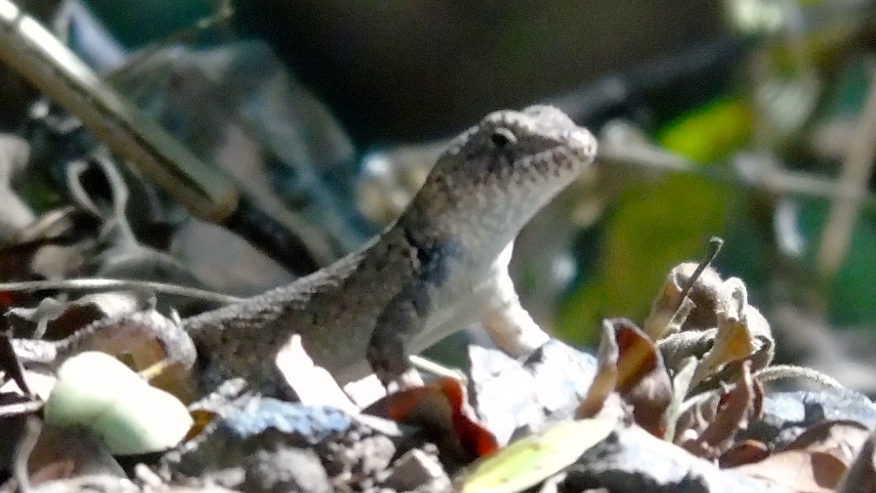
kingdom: Animalia
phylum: Chordata
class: Squamata
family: Phrynosomatidae
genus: Sceloporus
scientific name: Sceloporus nelsoni
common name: Nelson's spiny lizard
